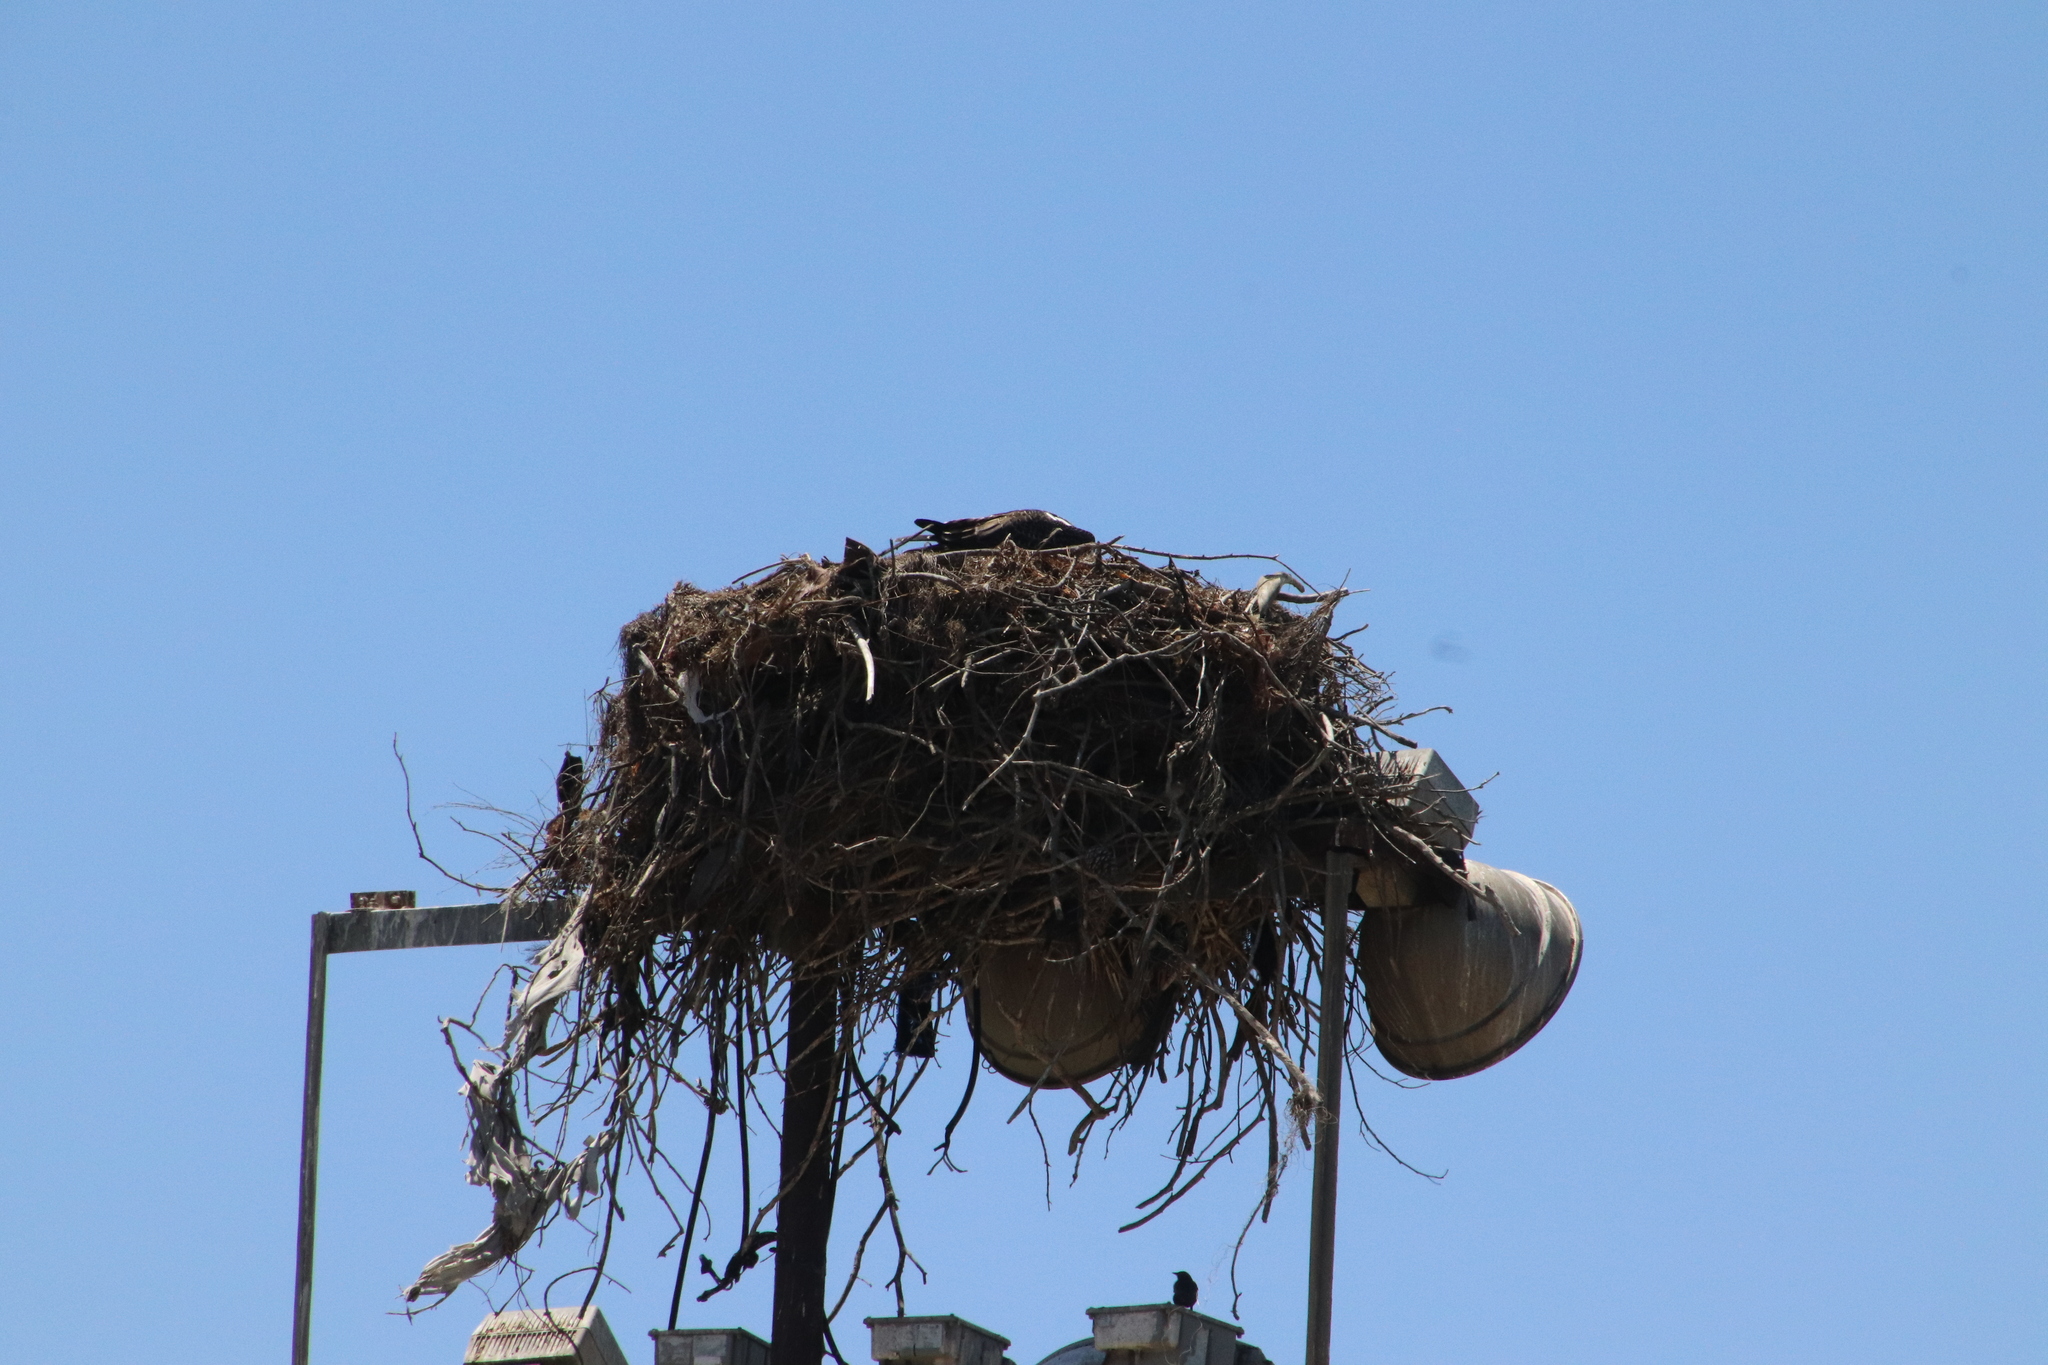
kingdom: Animalia
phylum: Chordata
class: Aves
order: Accipitriformes
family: Pandionidae
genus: Pandion
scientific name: Pandion haliaetus
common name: Osprey
